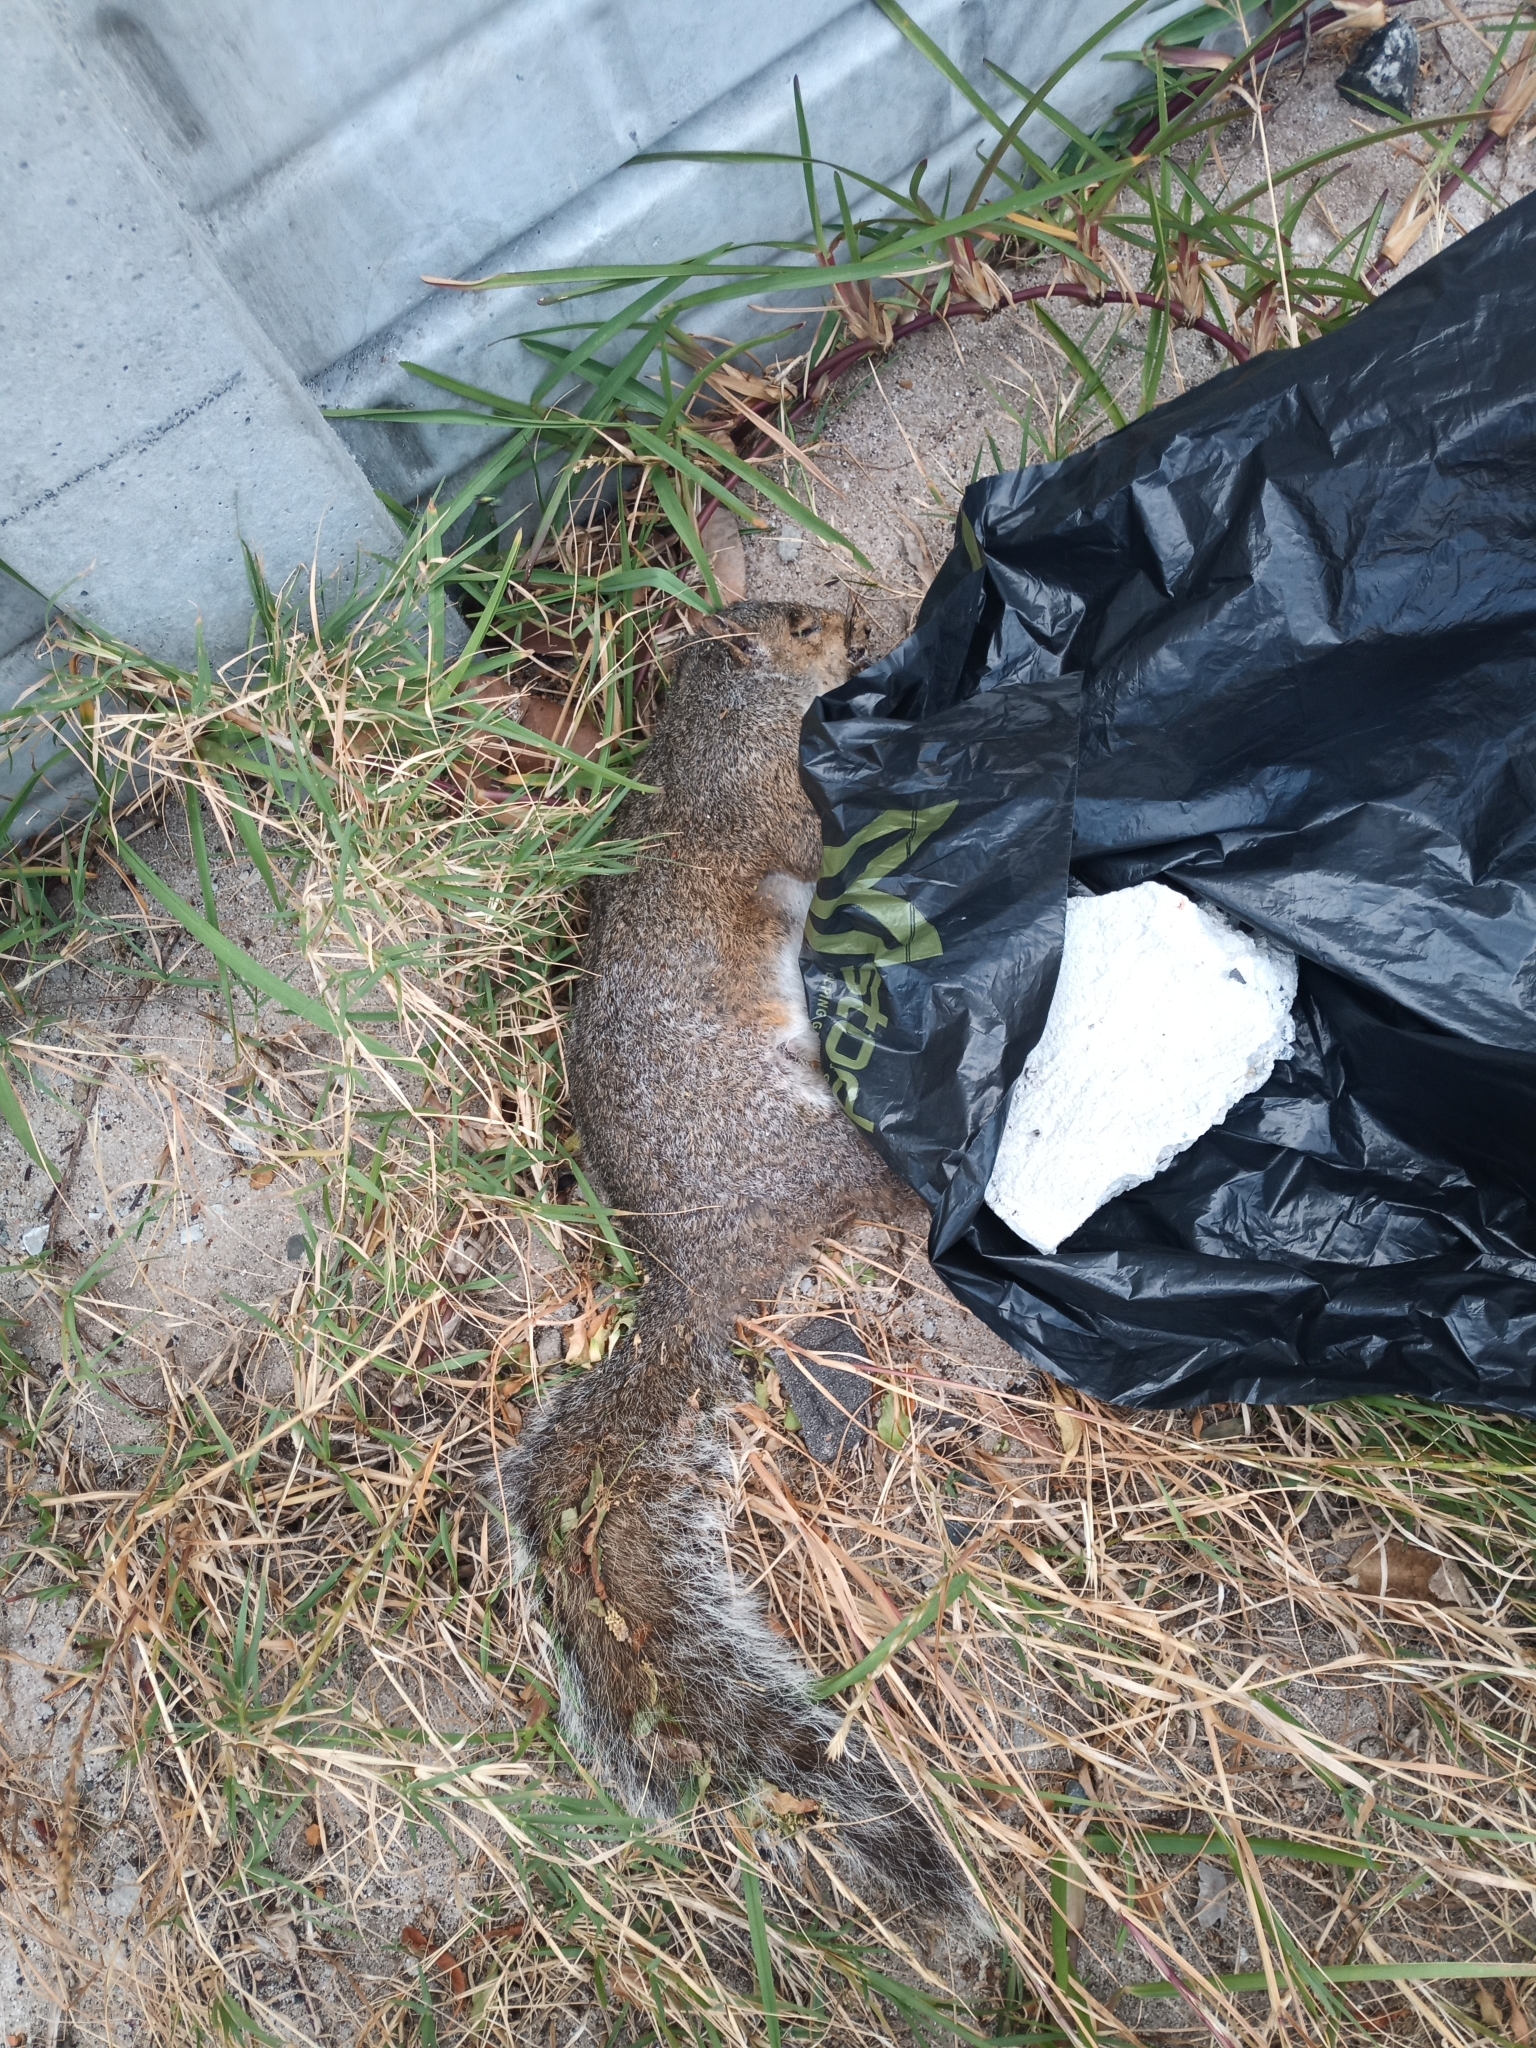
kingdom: Animalia
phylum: Chordata
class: Mammalia
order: Rodentia
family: Sciuridae
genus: Sciurus
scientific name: Sciurus carolinensis
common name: Eastern gray squirrel
